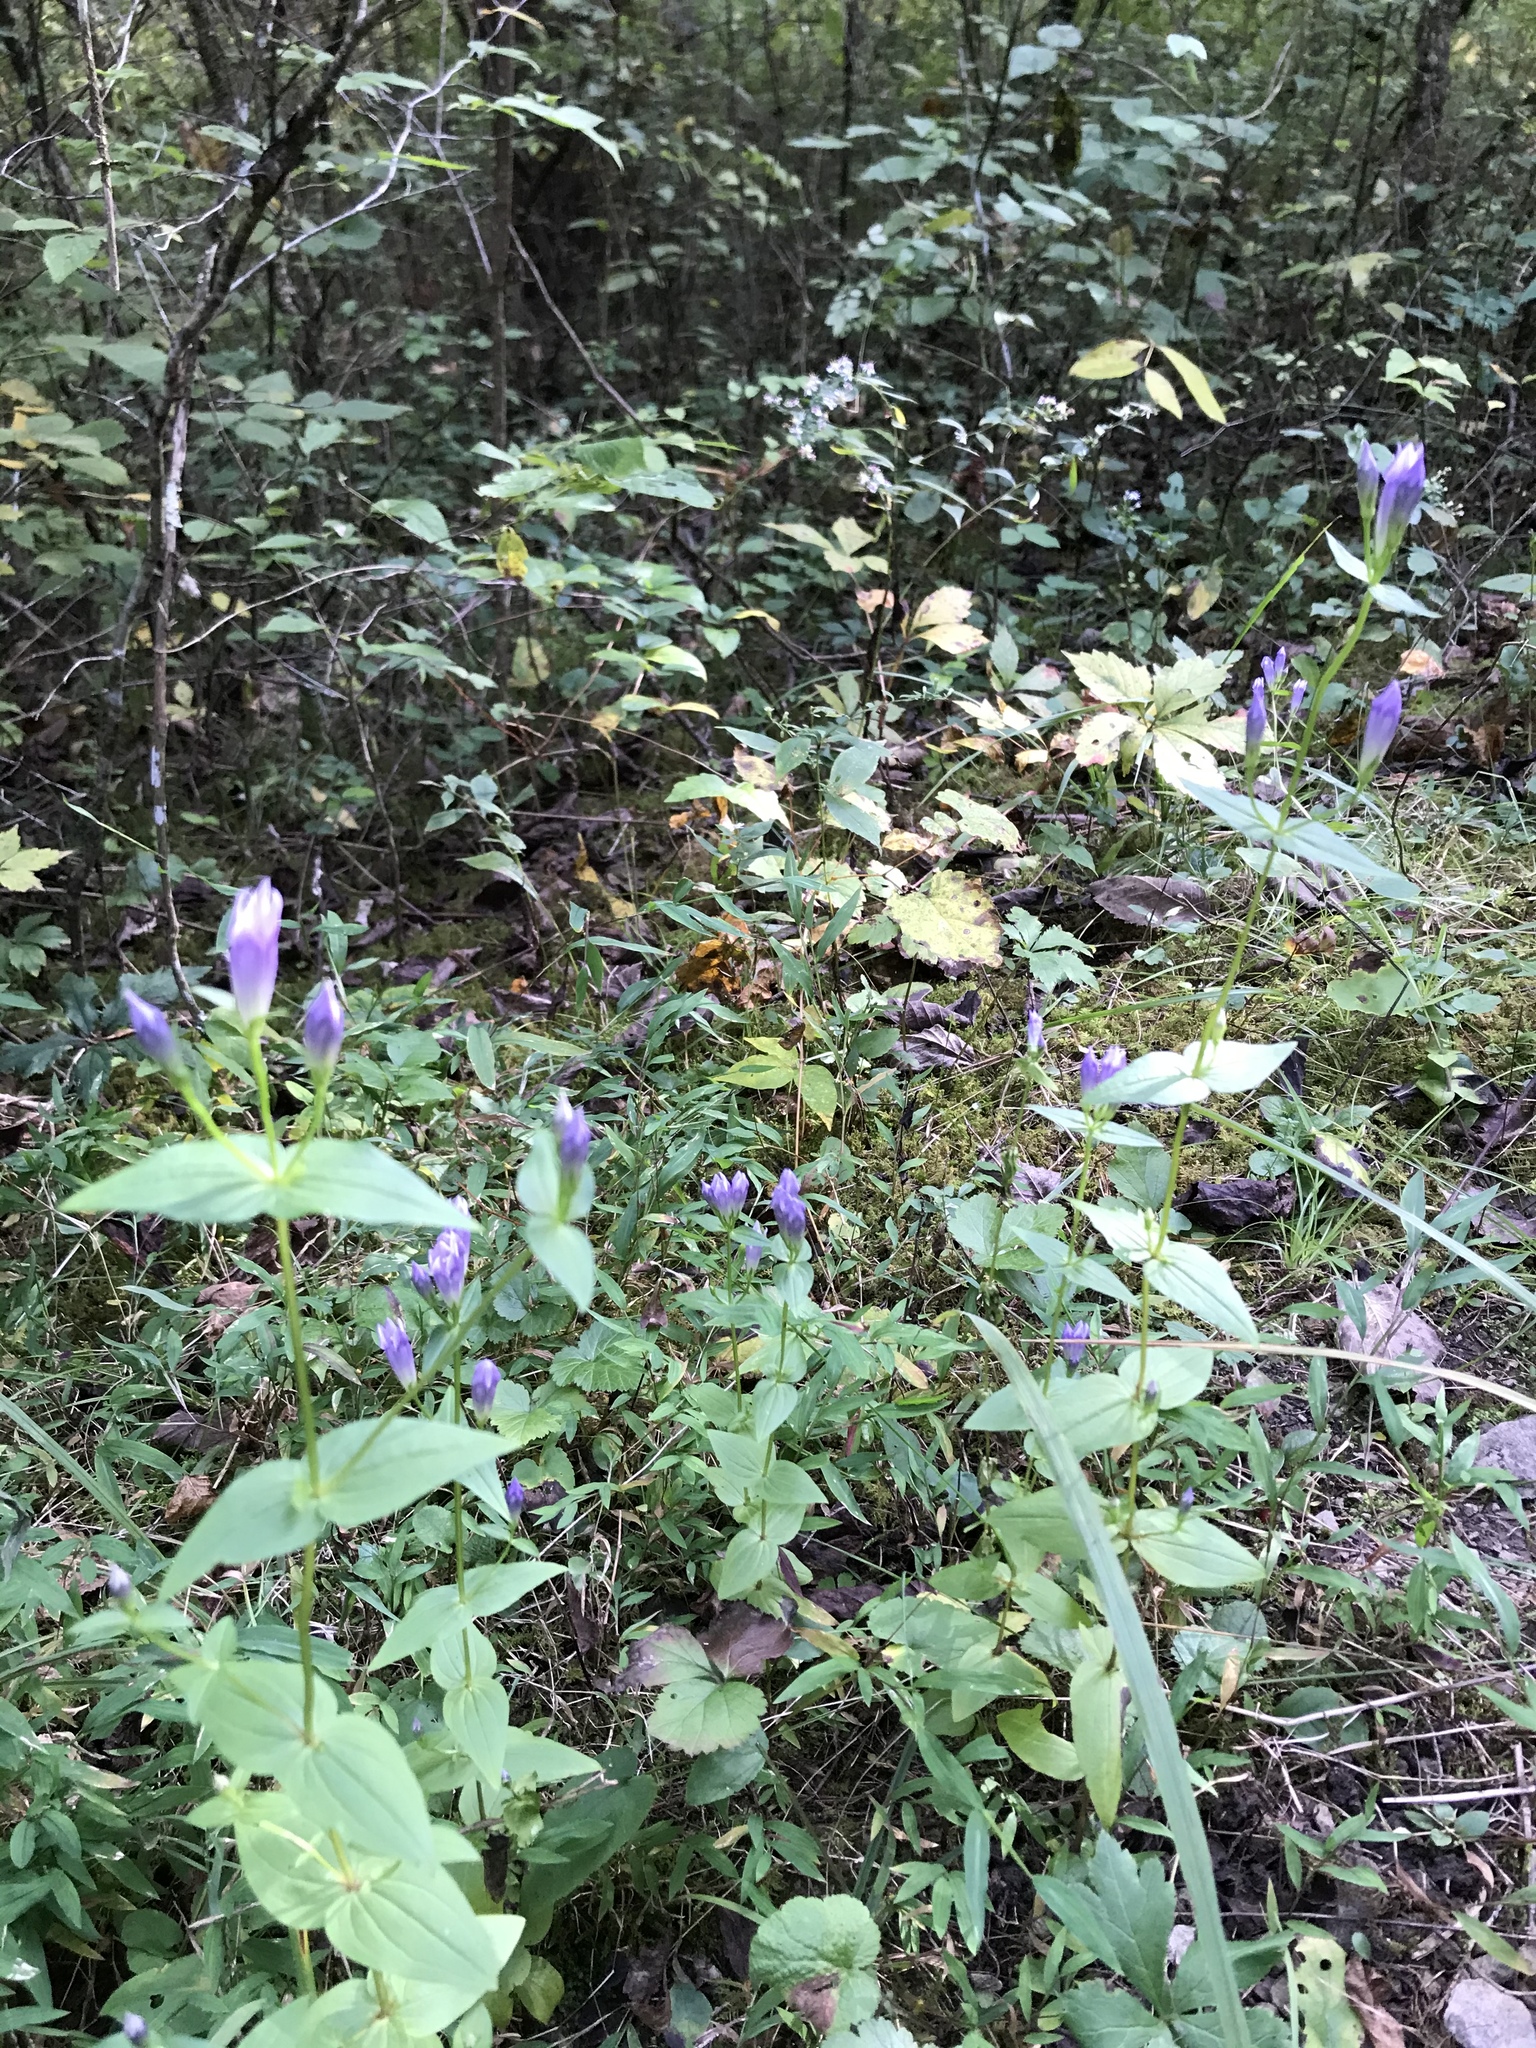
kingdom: Plantae
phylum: Tracheophyta
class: Magnoliopsida
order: Gentianales
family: Gentianaceae
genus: Gentianella
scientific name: Gentianella quinquefolia
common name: Agueweed
